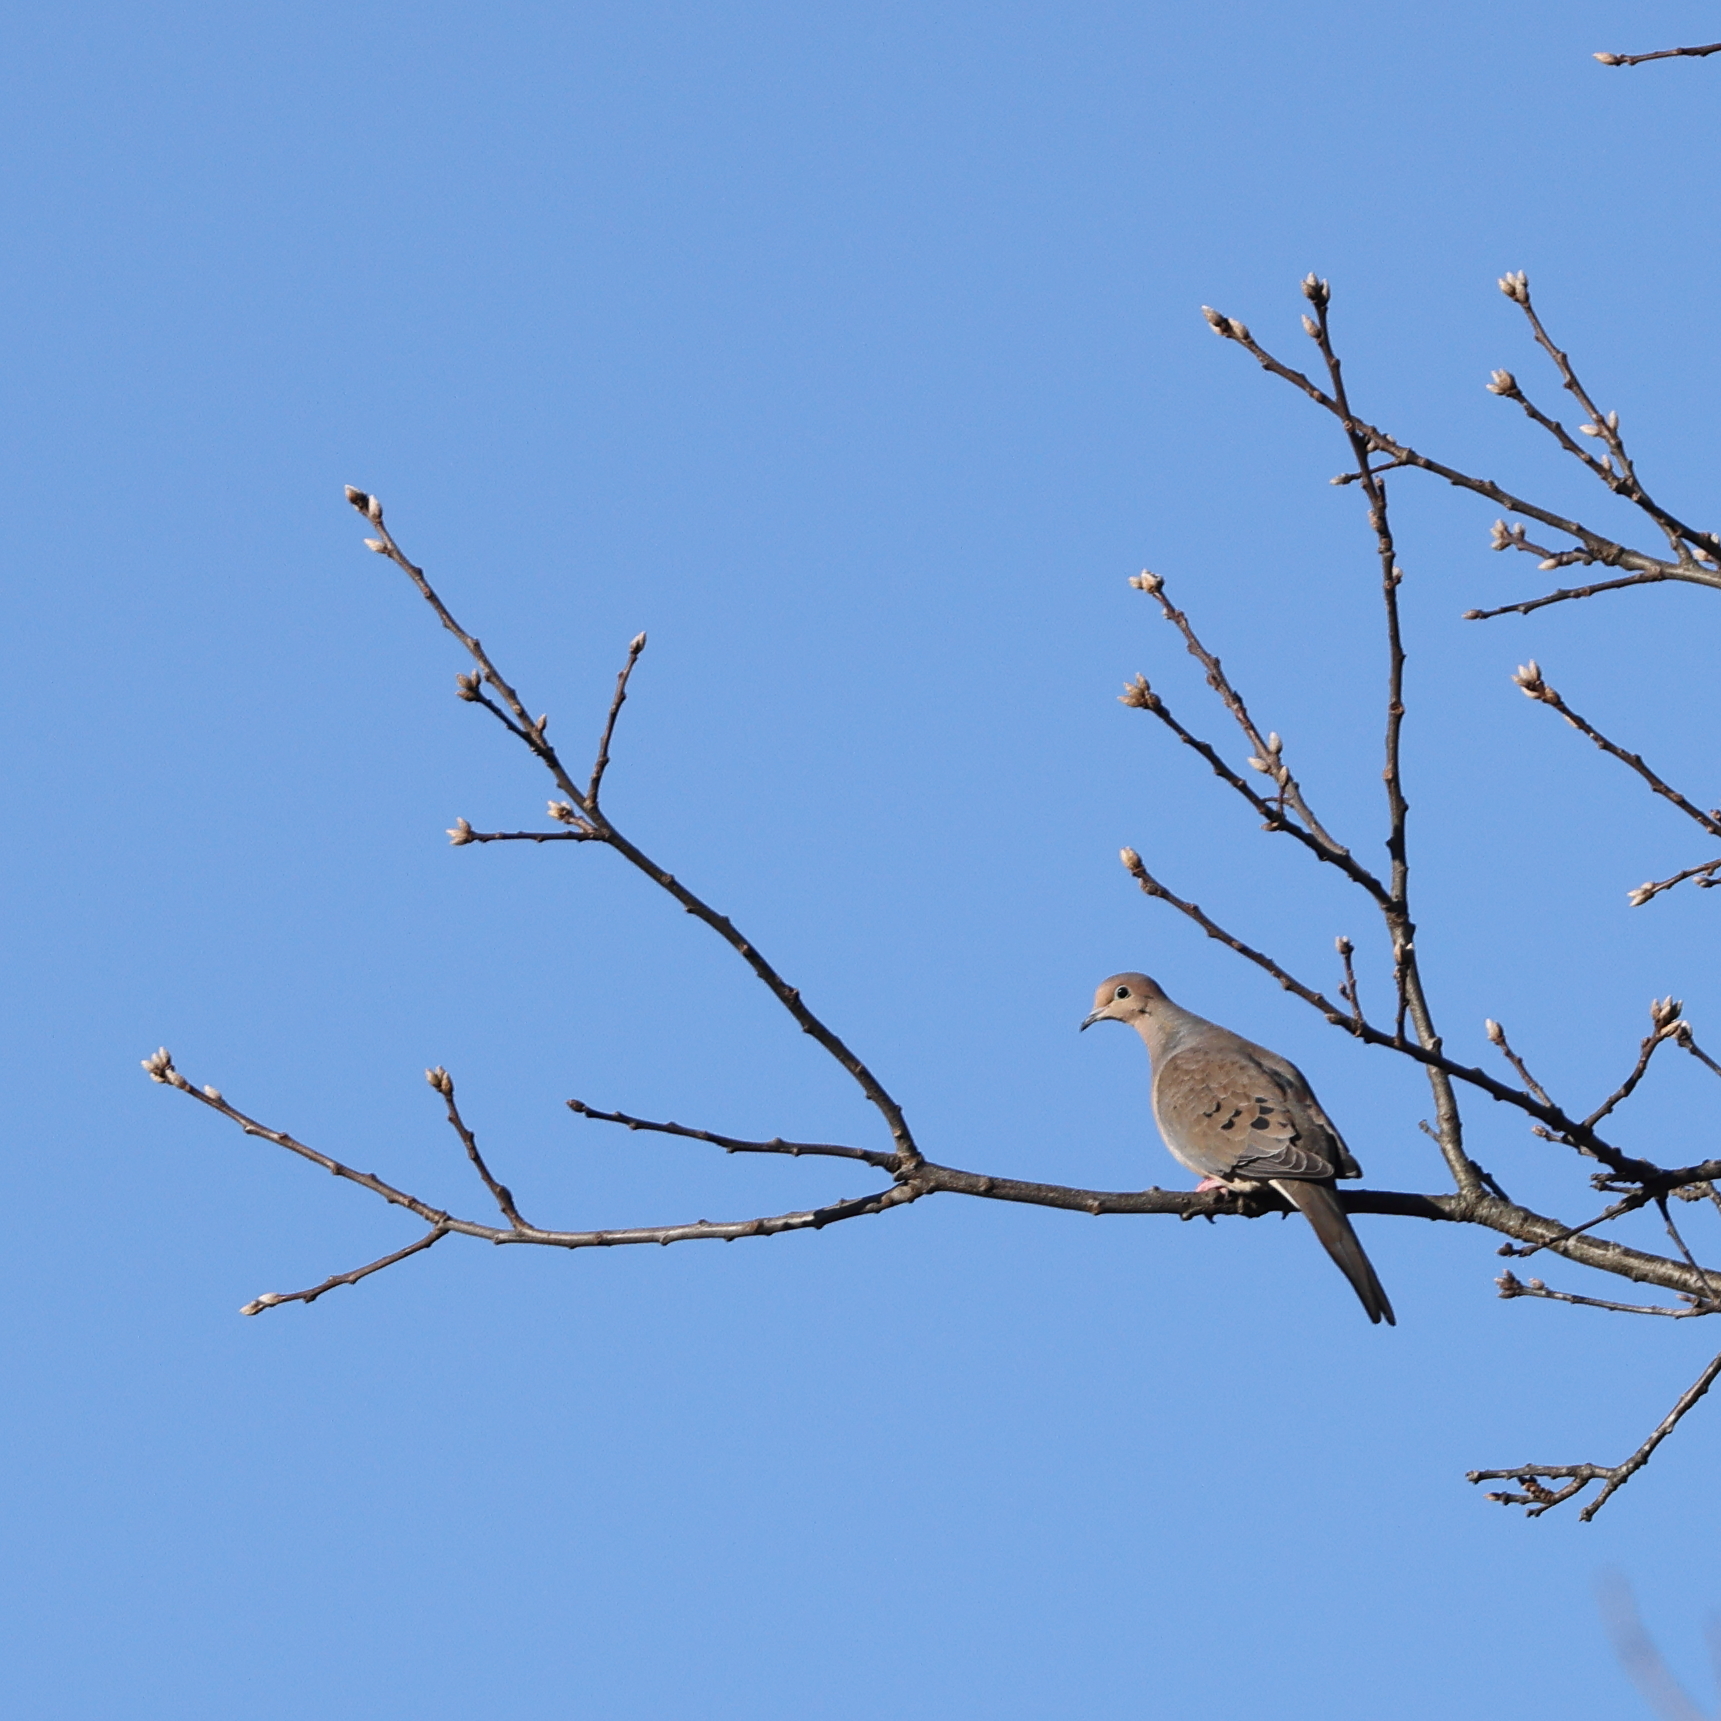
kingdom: Animalia
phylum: Chordata
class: Aves
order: Columbiformes
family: Columbidae
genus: Zenaida
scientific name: Zenaida macroura
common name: Mourning dove
